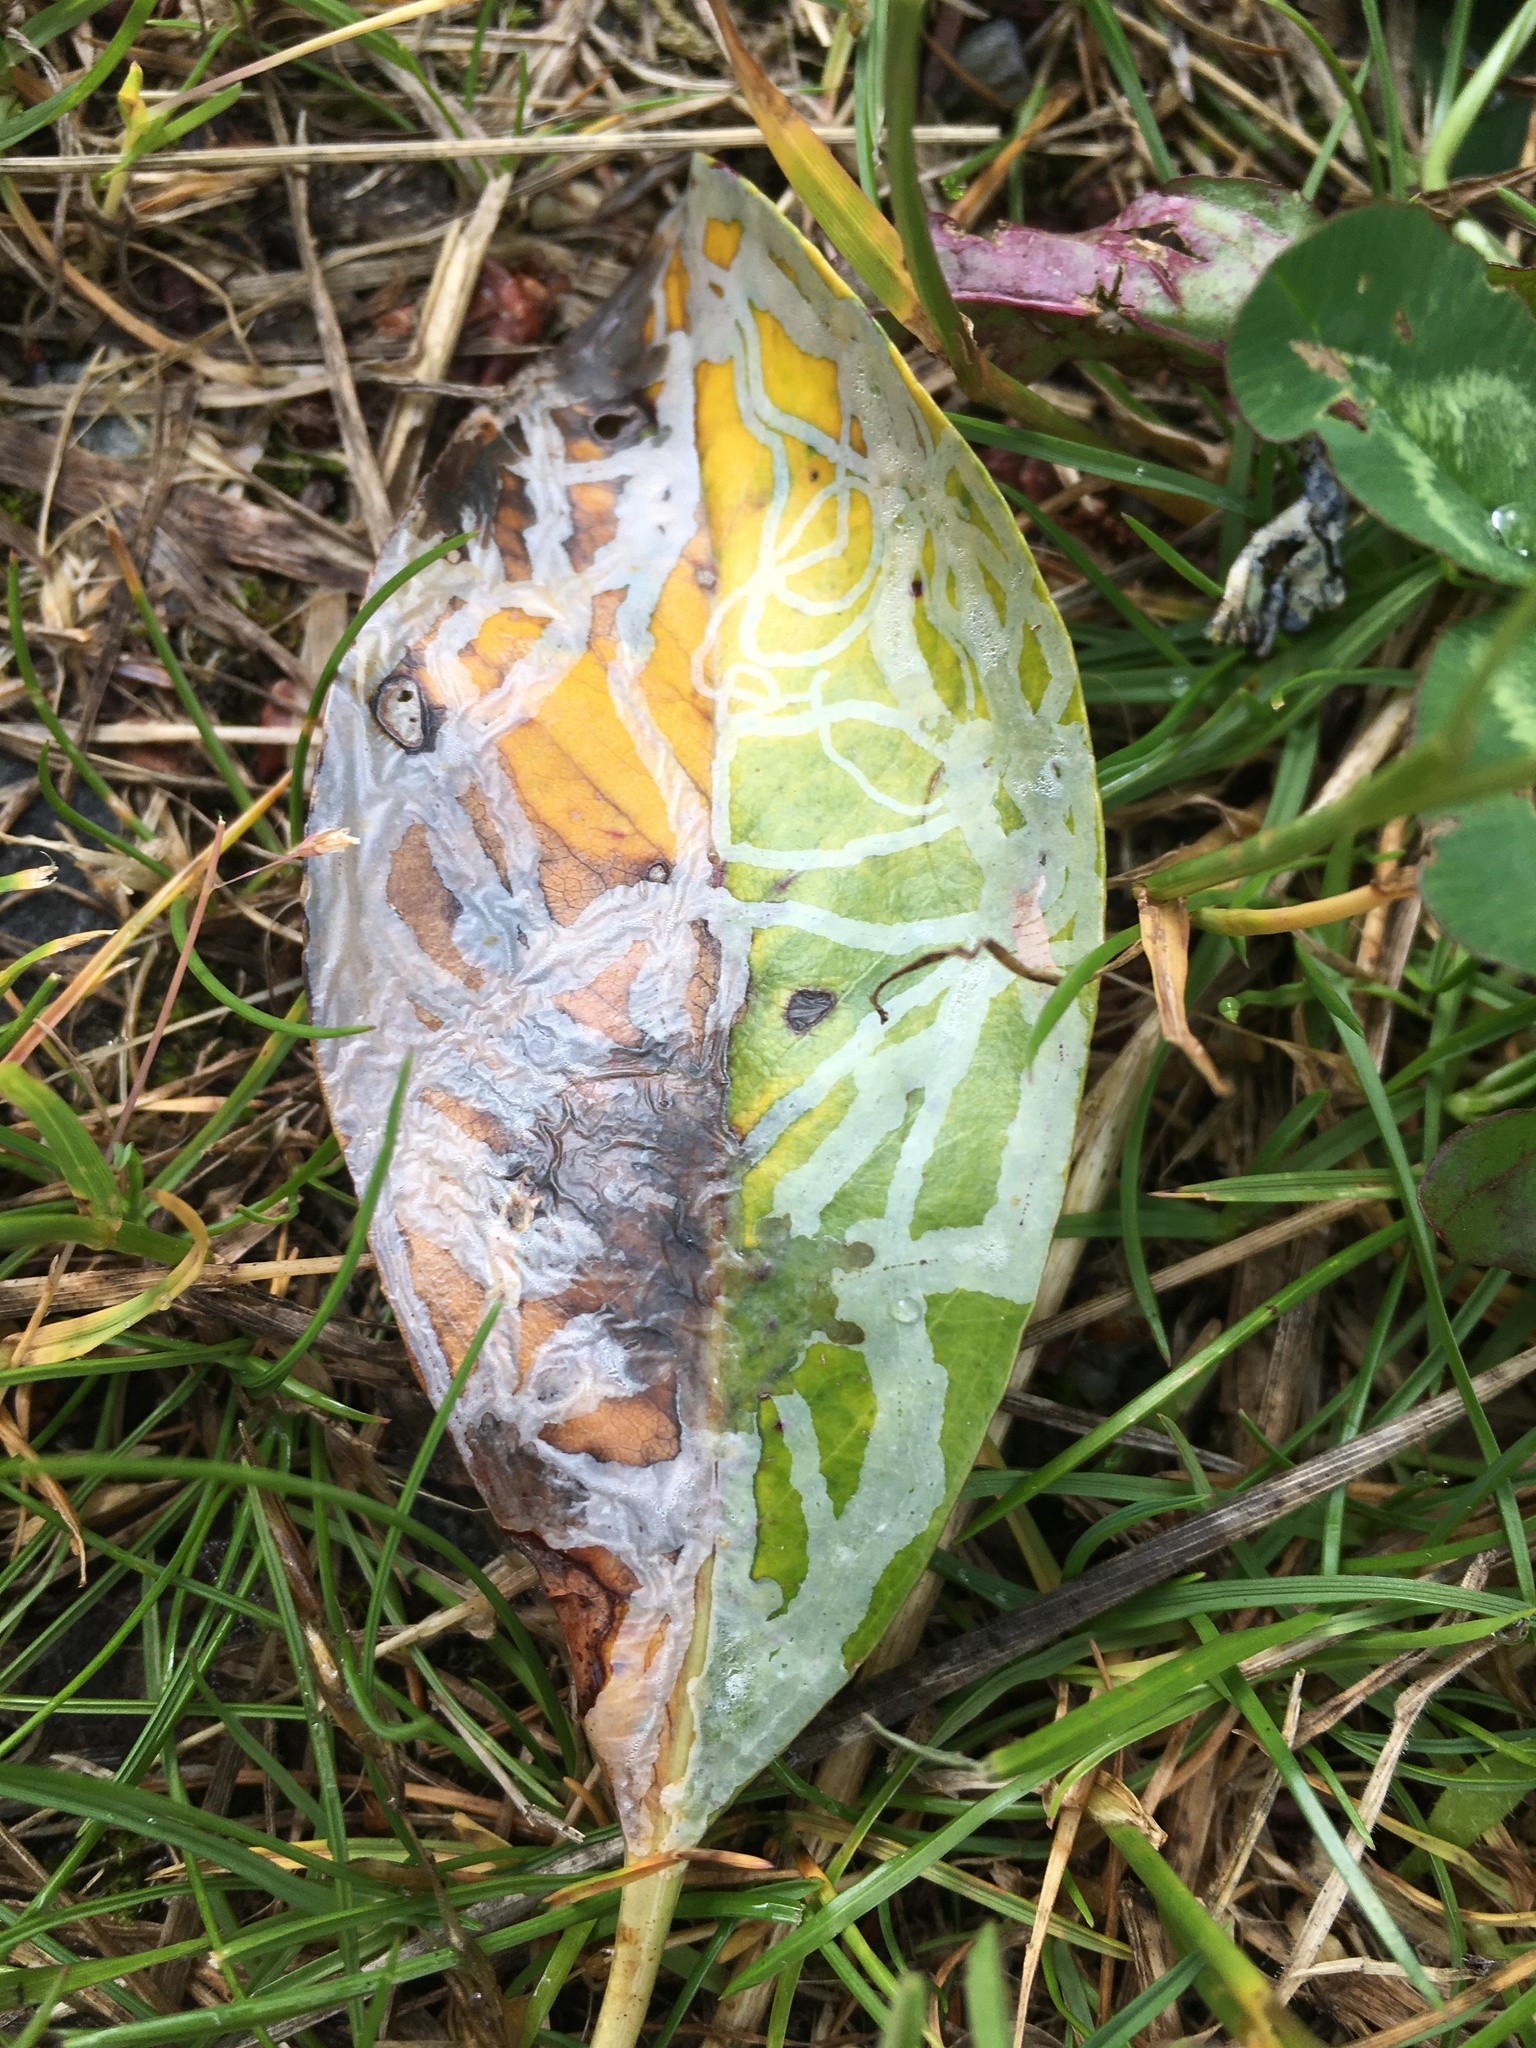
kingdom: Animalia
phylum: Arthropoda
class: Insecta
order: Lepidoptera
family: Gracillariidae
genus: Marmara
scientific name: Marmara arbutiella
